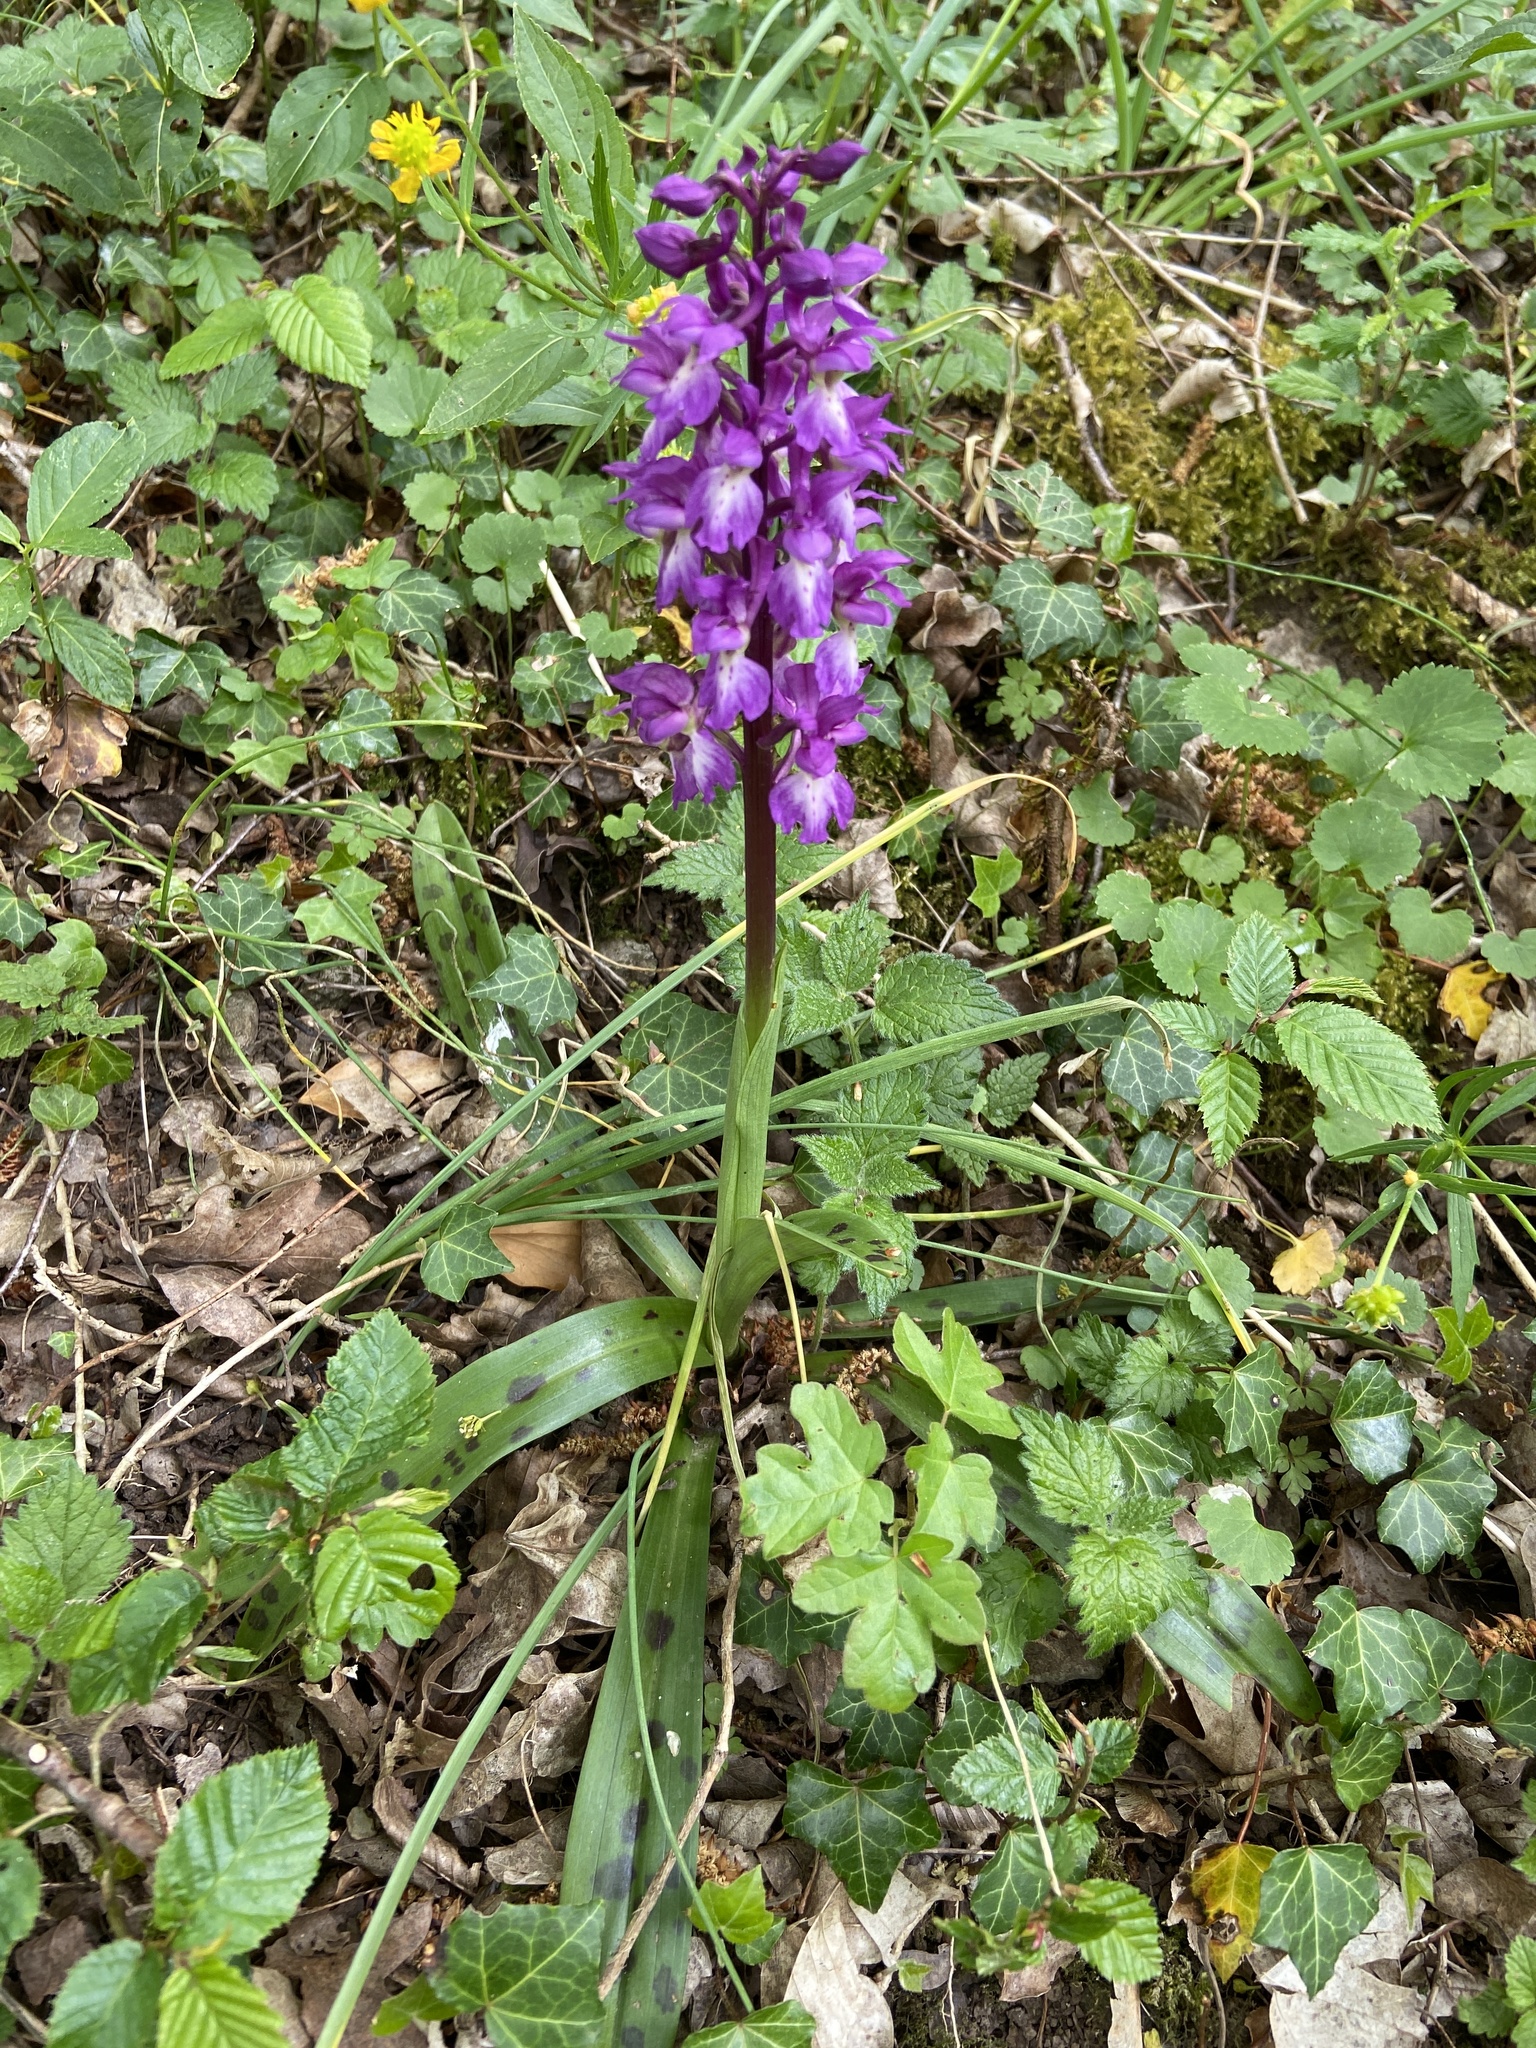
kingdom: Plantae
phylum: Tracheophyta
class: Liliopsida
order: Asparagales
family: Orchidaceae
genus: Orchis
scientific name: Orchis mascula
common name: Early-purple orchid
